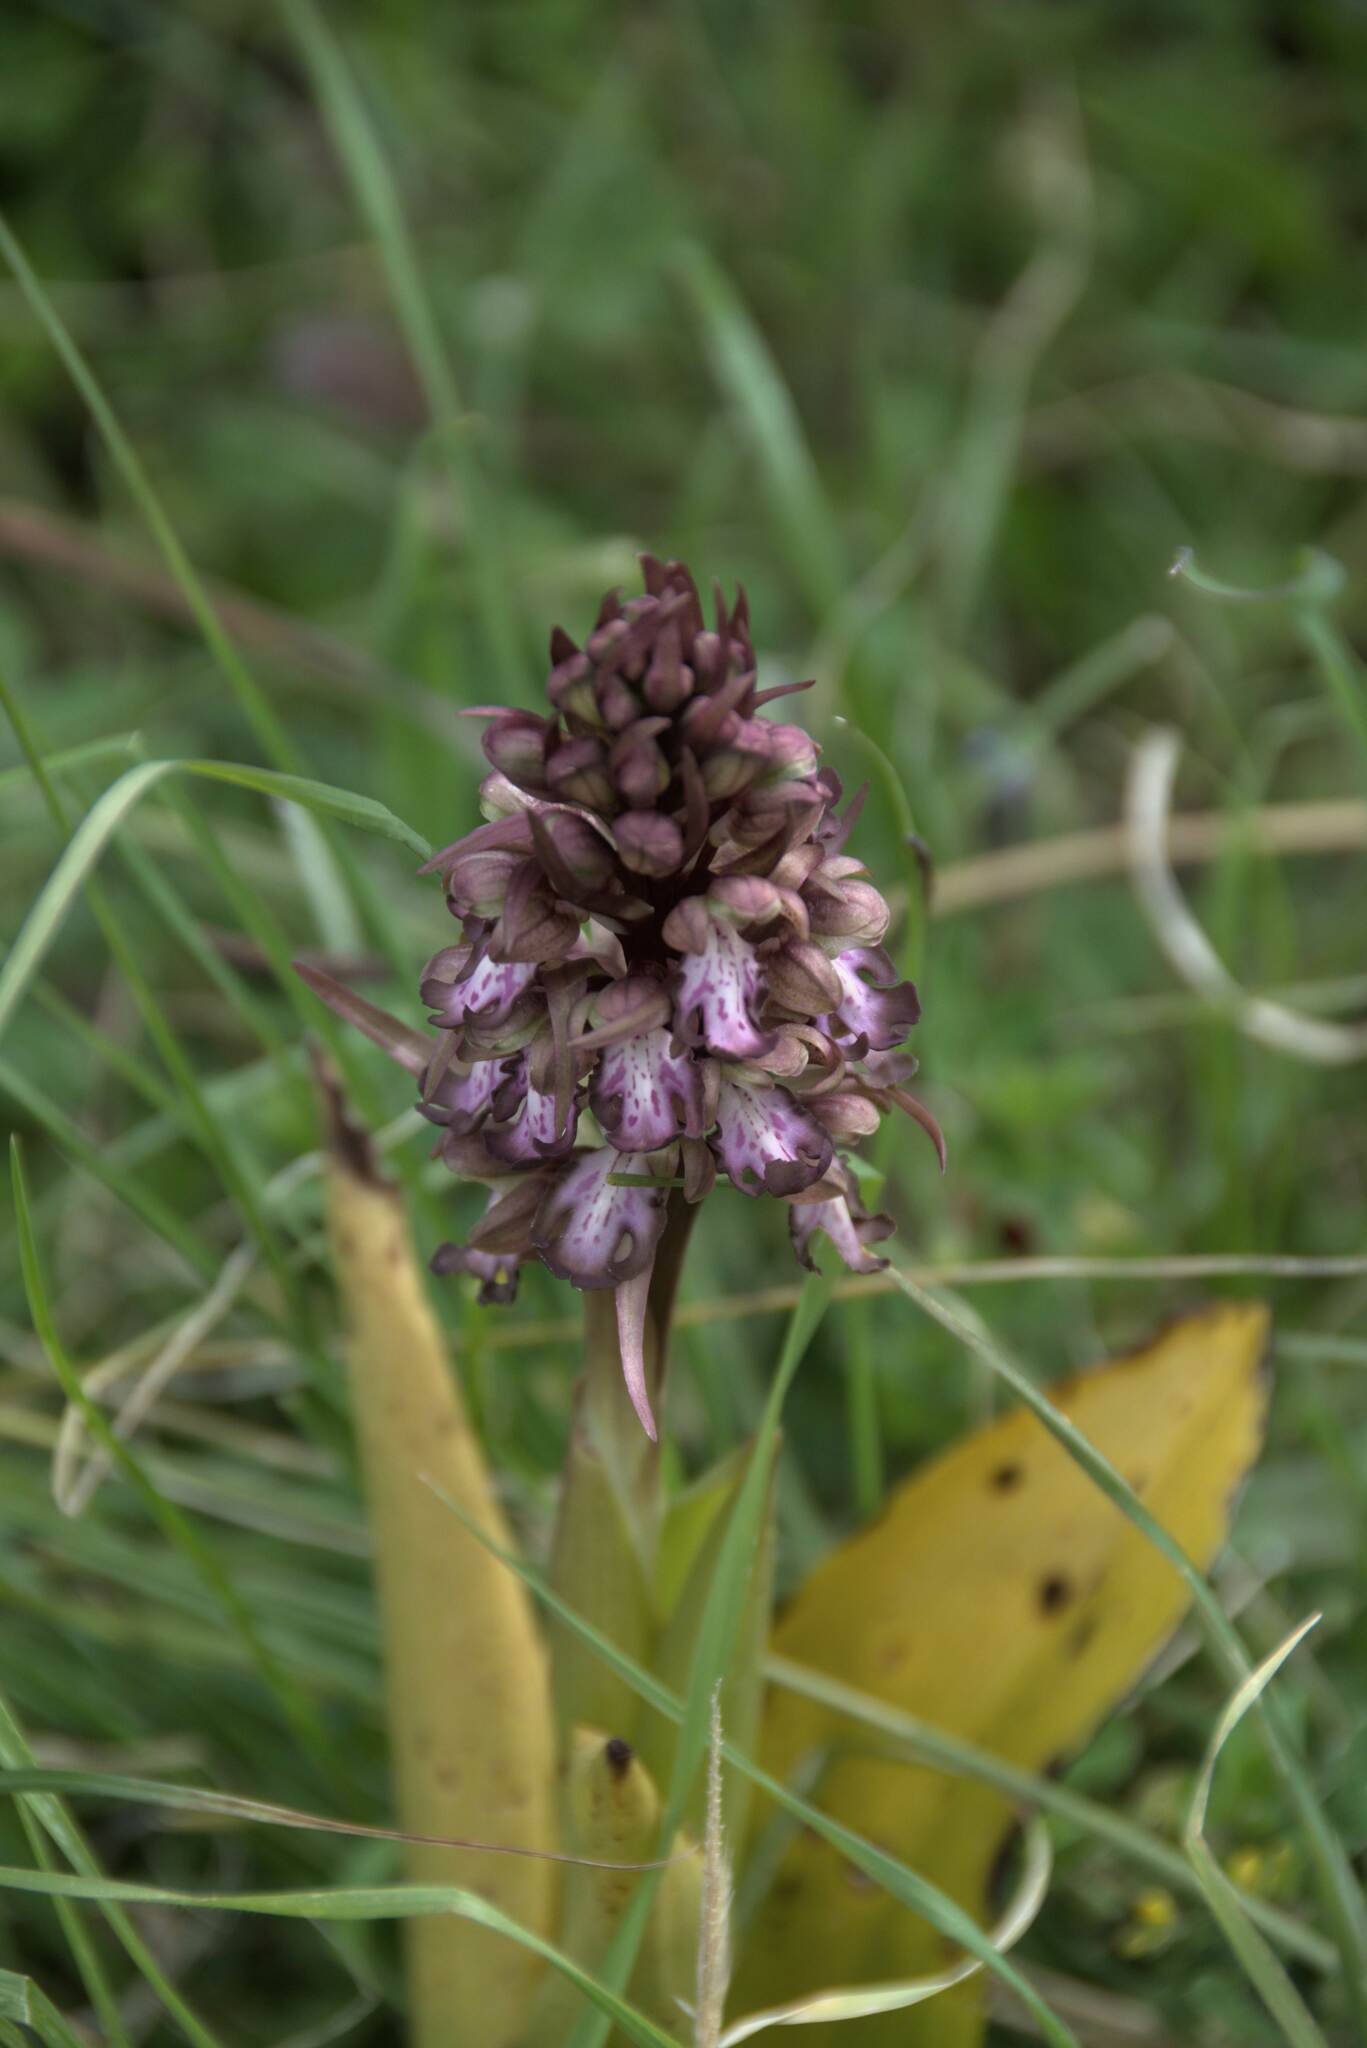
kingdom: Plantae
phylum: Tracheophyta
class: Liliopsida
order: Asparagales
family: Orchidaceae
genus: Himantoglossum
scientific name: Himantoglossum robertianum
